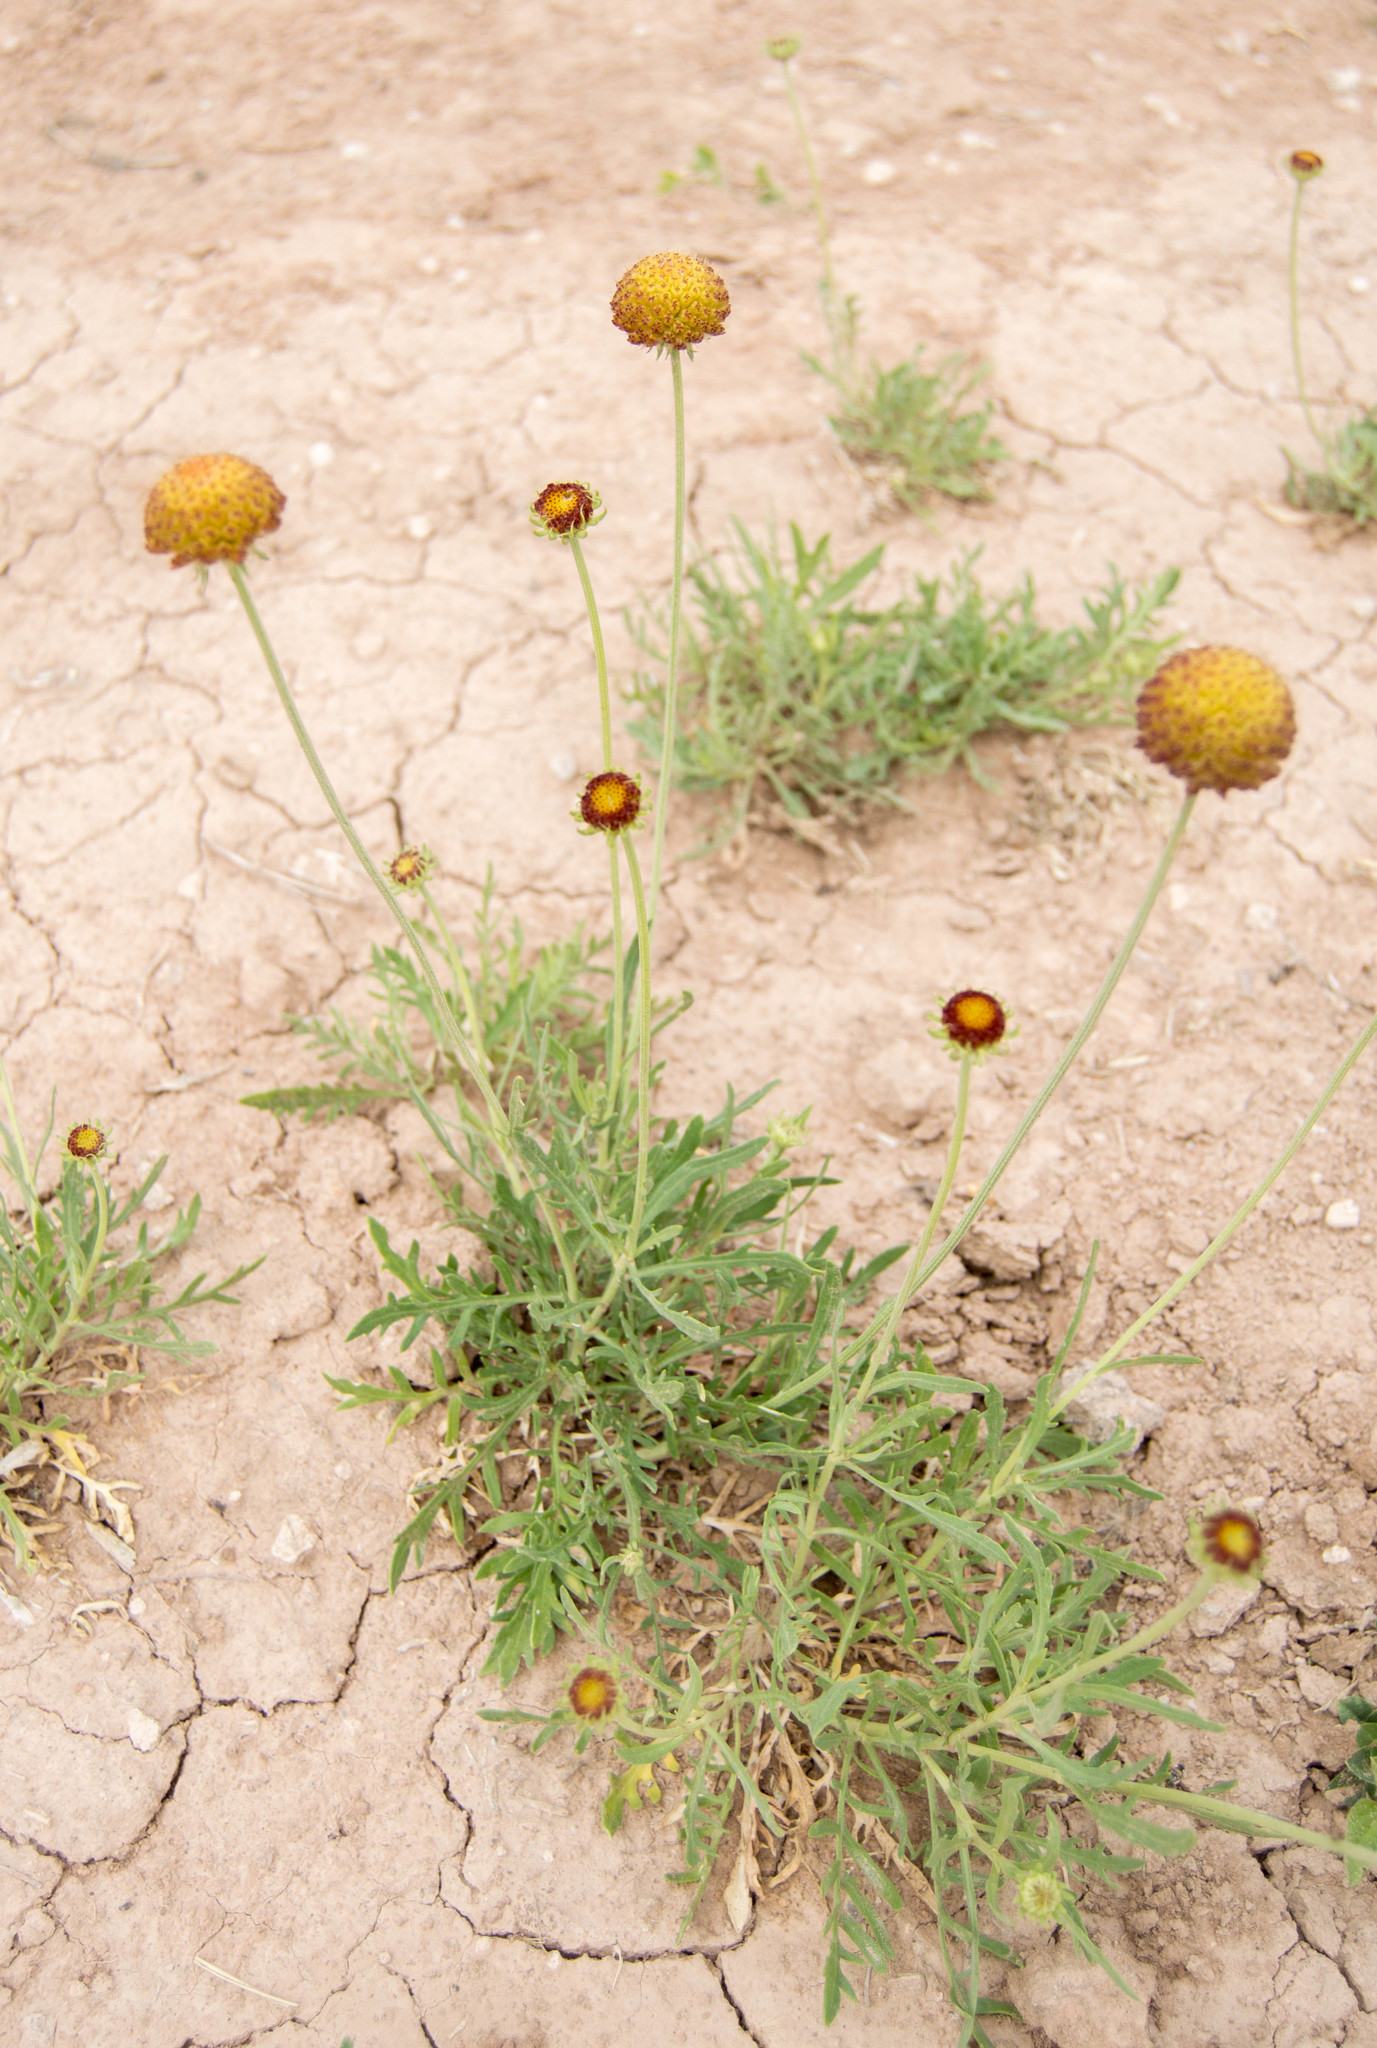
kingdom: Plantae
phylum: Tracheophyta
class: Magnoliopsida
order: Asterales
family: Asteraceae
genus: Gaillardia
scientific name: Gaillardia megapotamica
